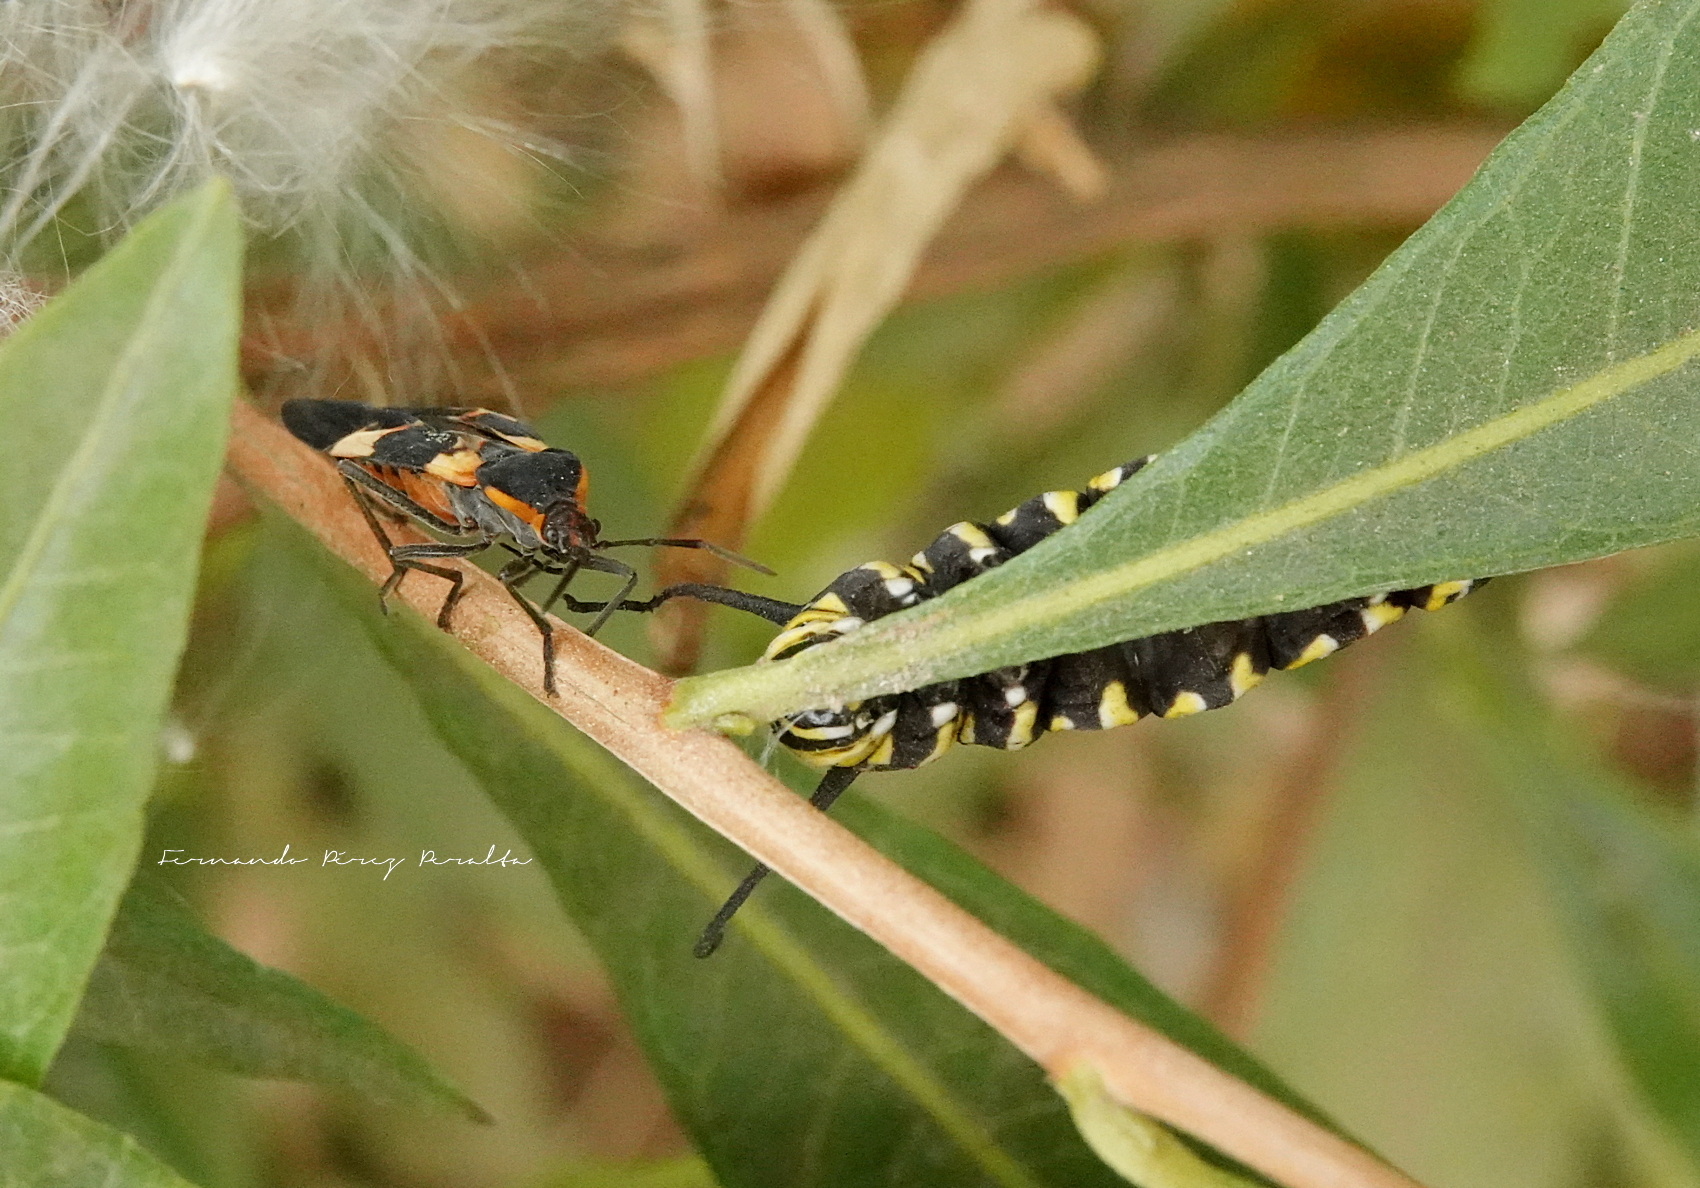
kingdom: Animalia
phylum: Arthropoda
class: Insecta
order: Hemiptera
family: Lygaeidae
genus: Oncopeltus
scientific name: Oncopeltus fasciatus
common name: Large milkweed bug
